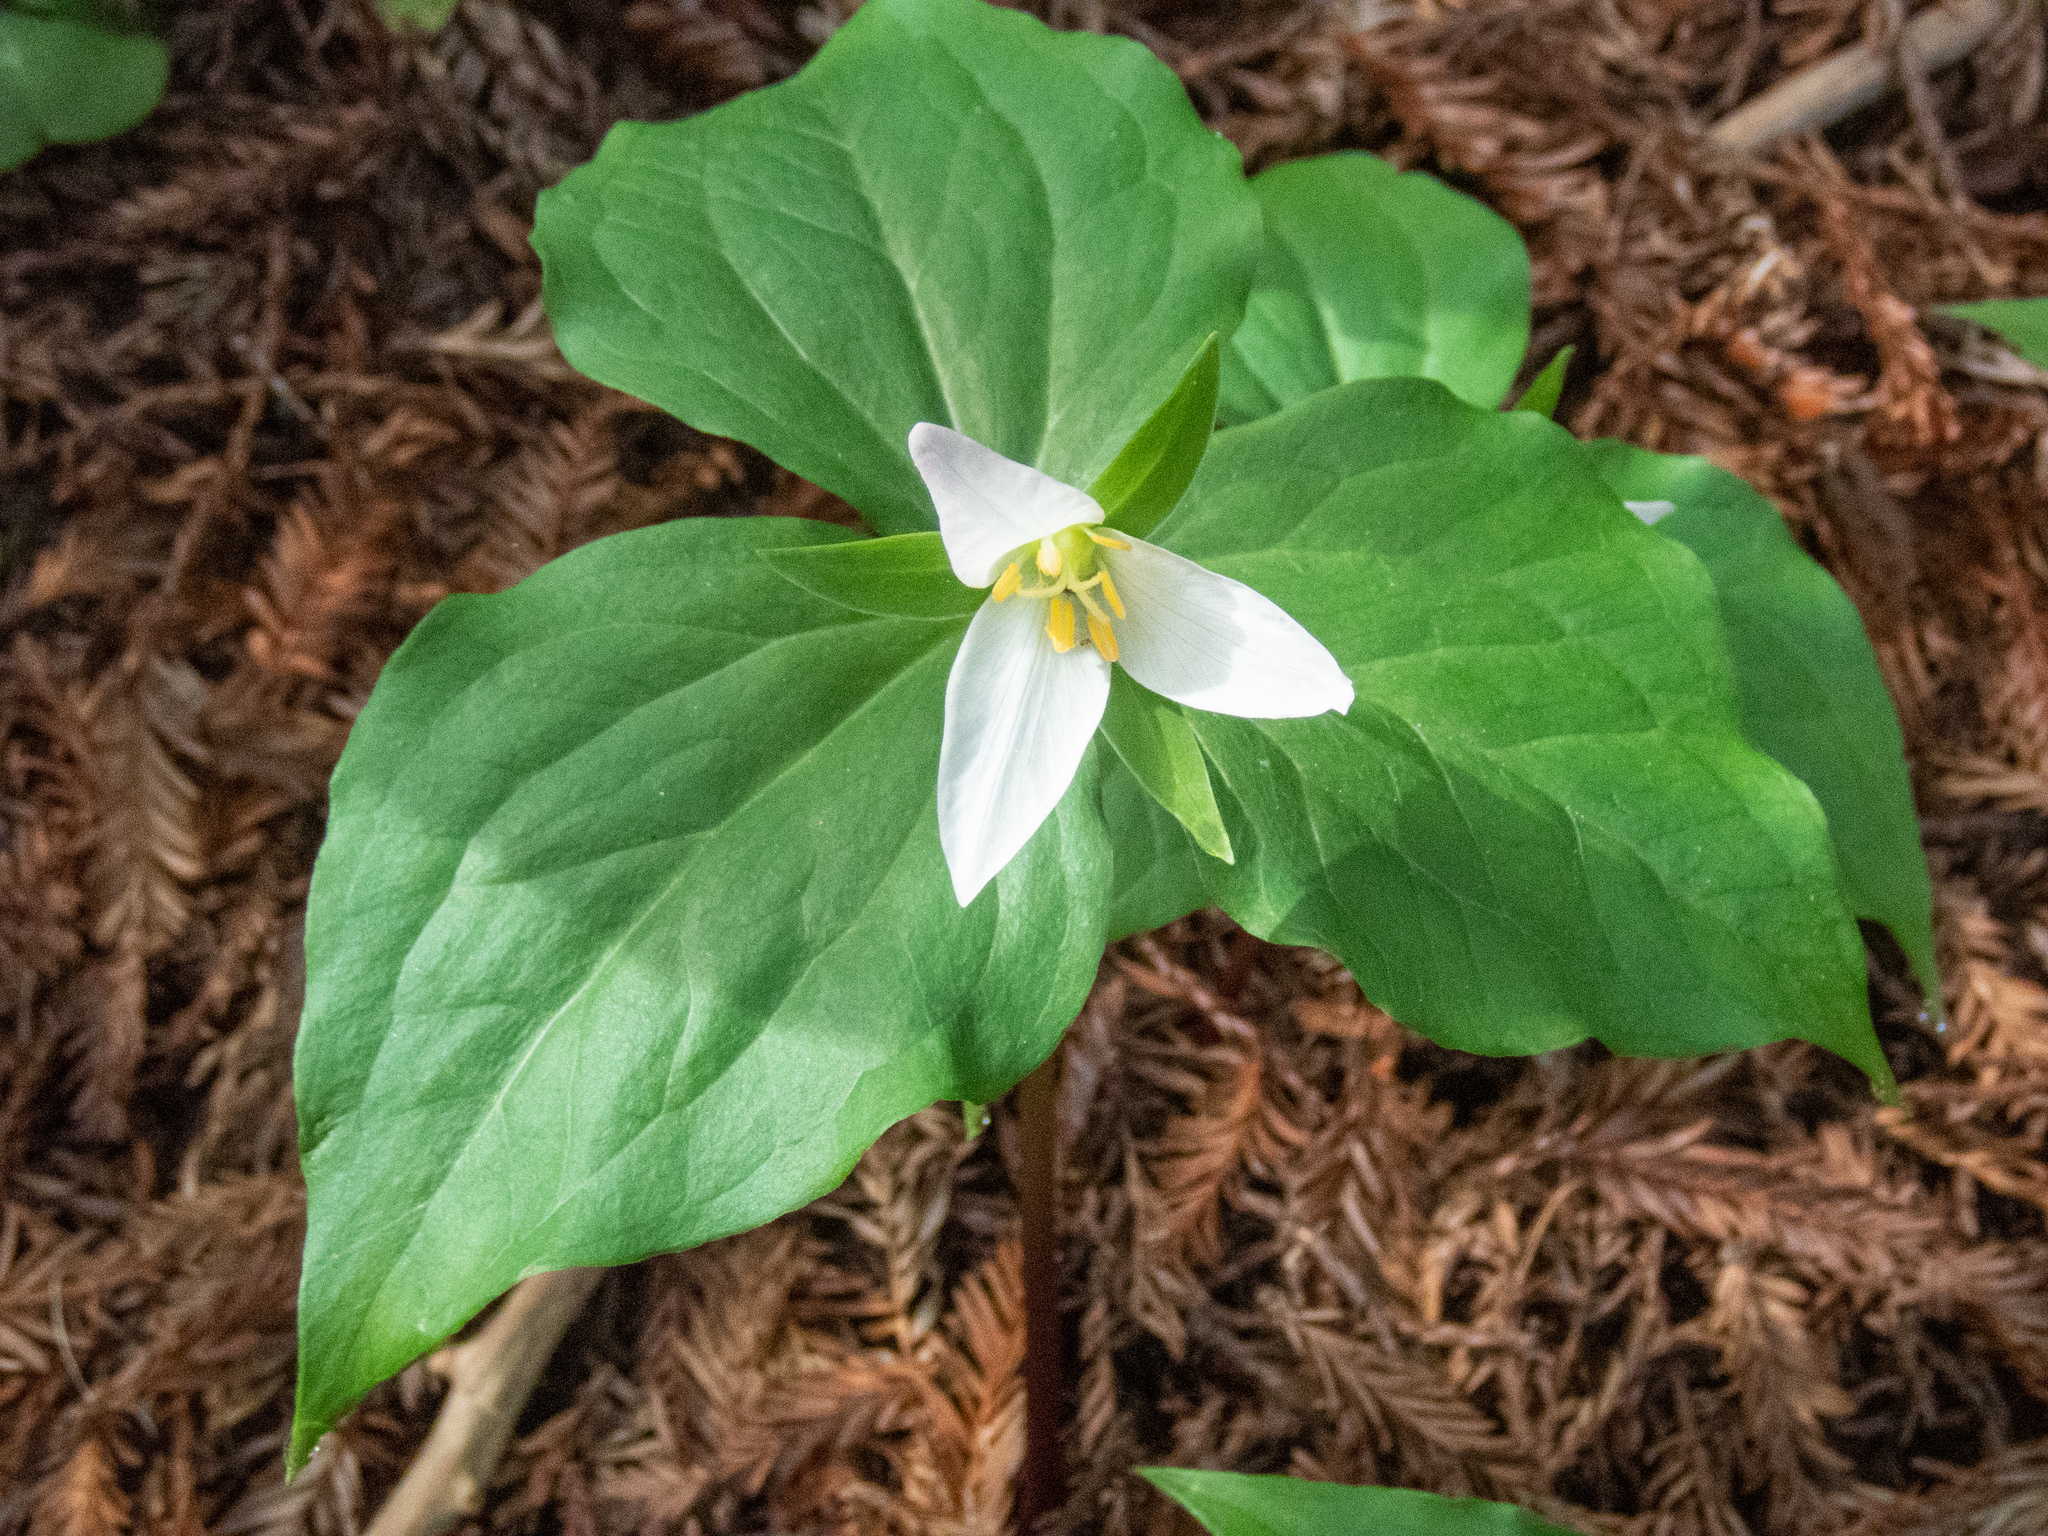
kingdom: Plantae
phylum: Tracheophyta
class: Liliopsida
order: Liliales
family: Melanthiaceae
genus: Trillium
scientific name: Trillium ovatum
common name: Pacific trillium
